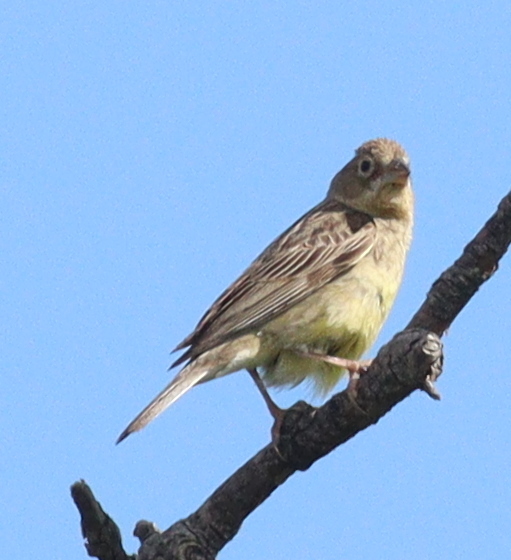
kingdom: Animalia
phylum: Chordata
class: Aves
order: Passeriformes
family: Thraupidae
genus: Sicalis
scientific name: Sicalis luteola
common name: Grassland yellow-finch
